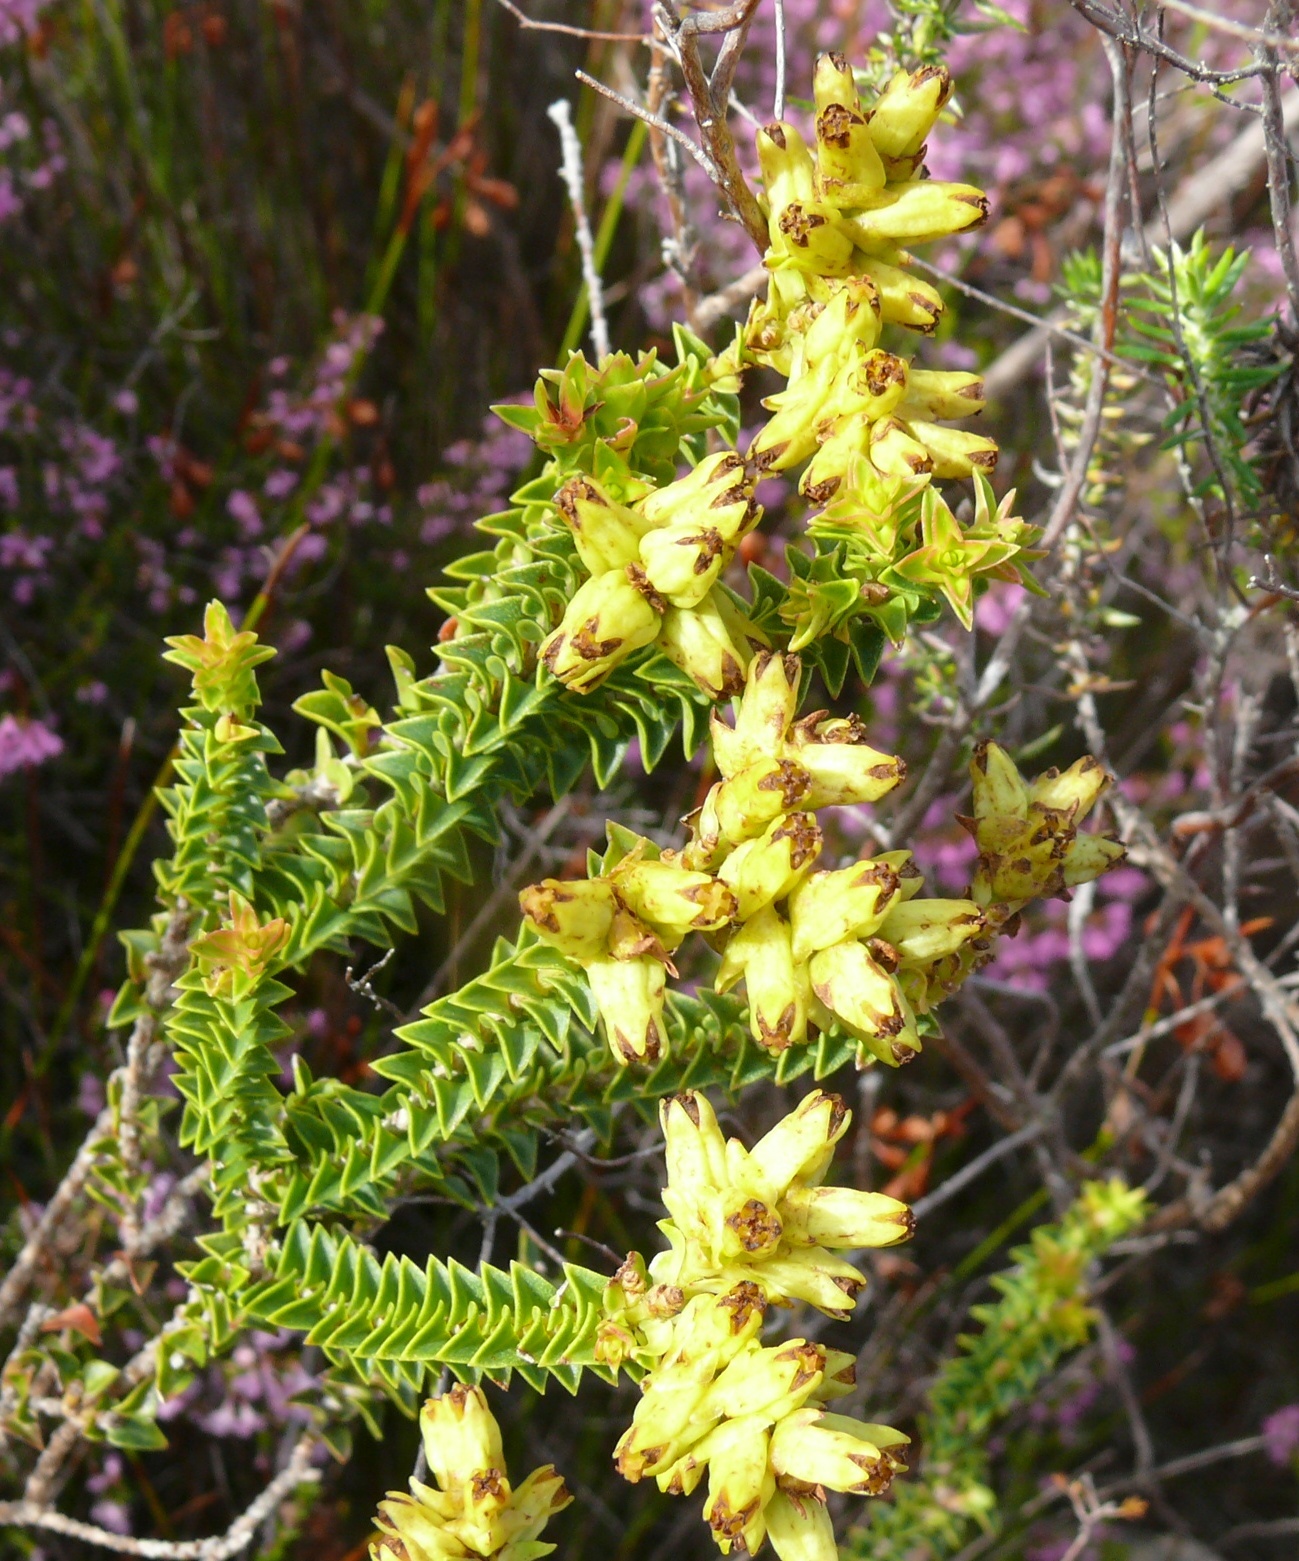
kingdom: Plantae
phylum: Tracheophyta
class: Magnoliopsida
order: Myrtales
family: Penaeaceae
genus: Penaea
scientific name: Penaea mucronata
